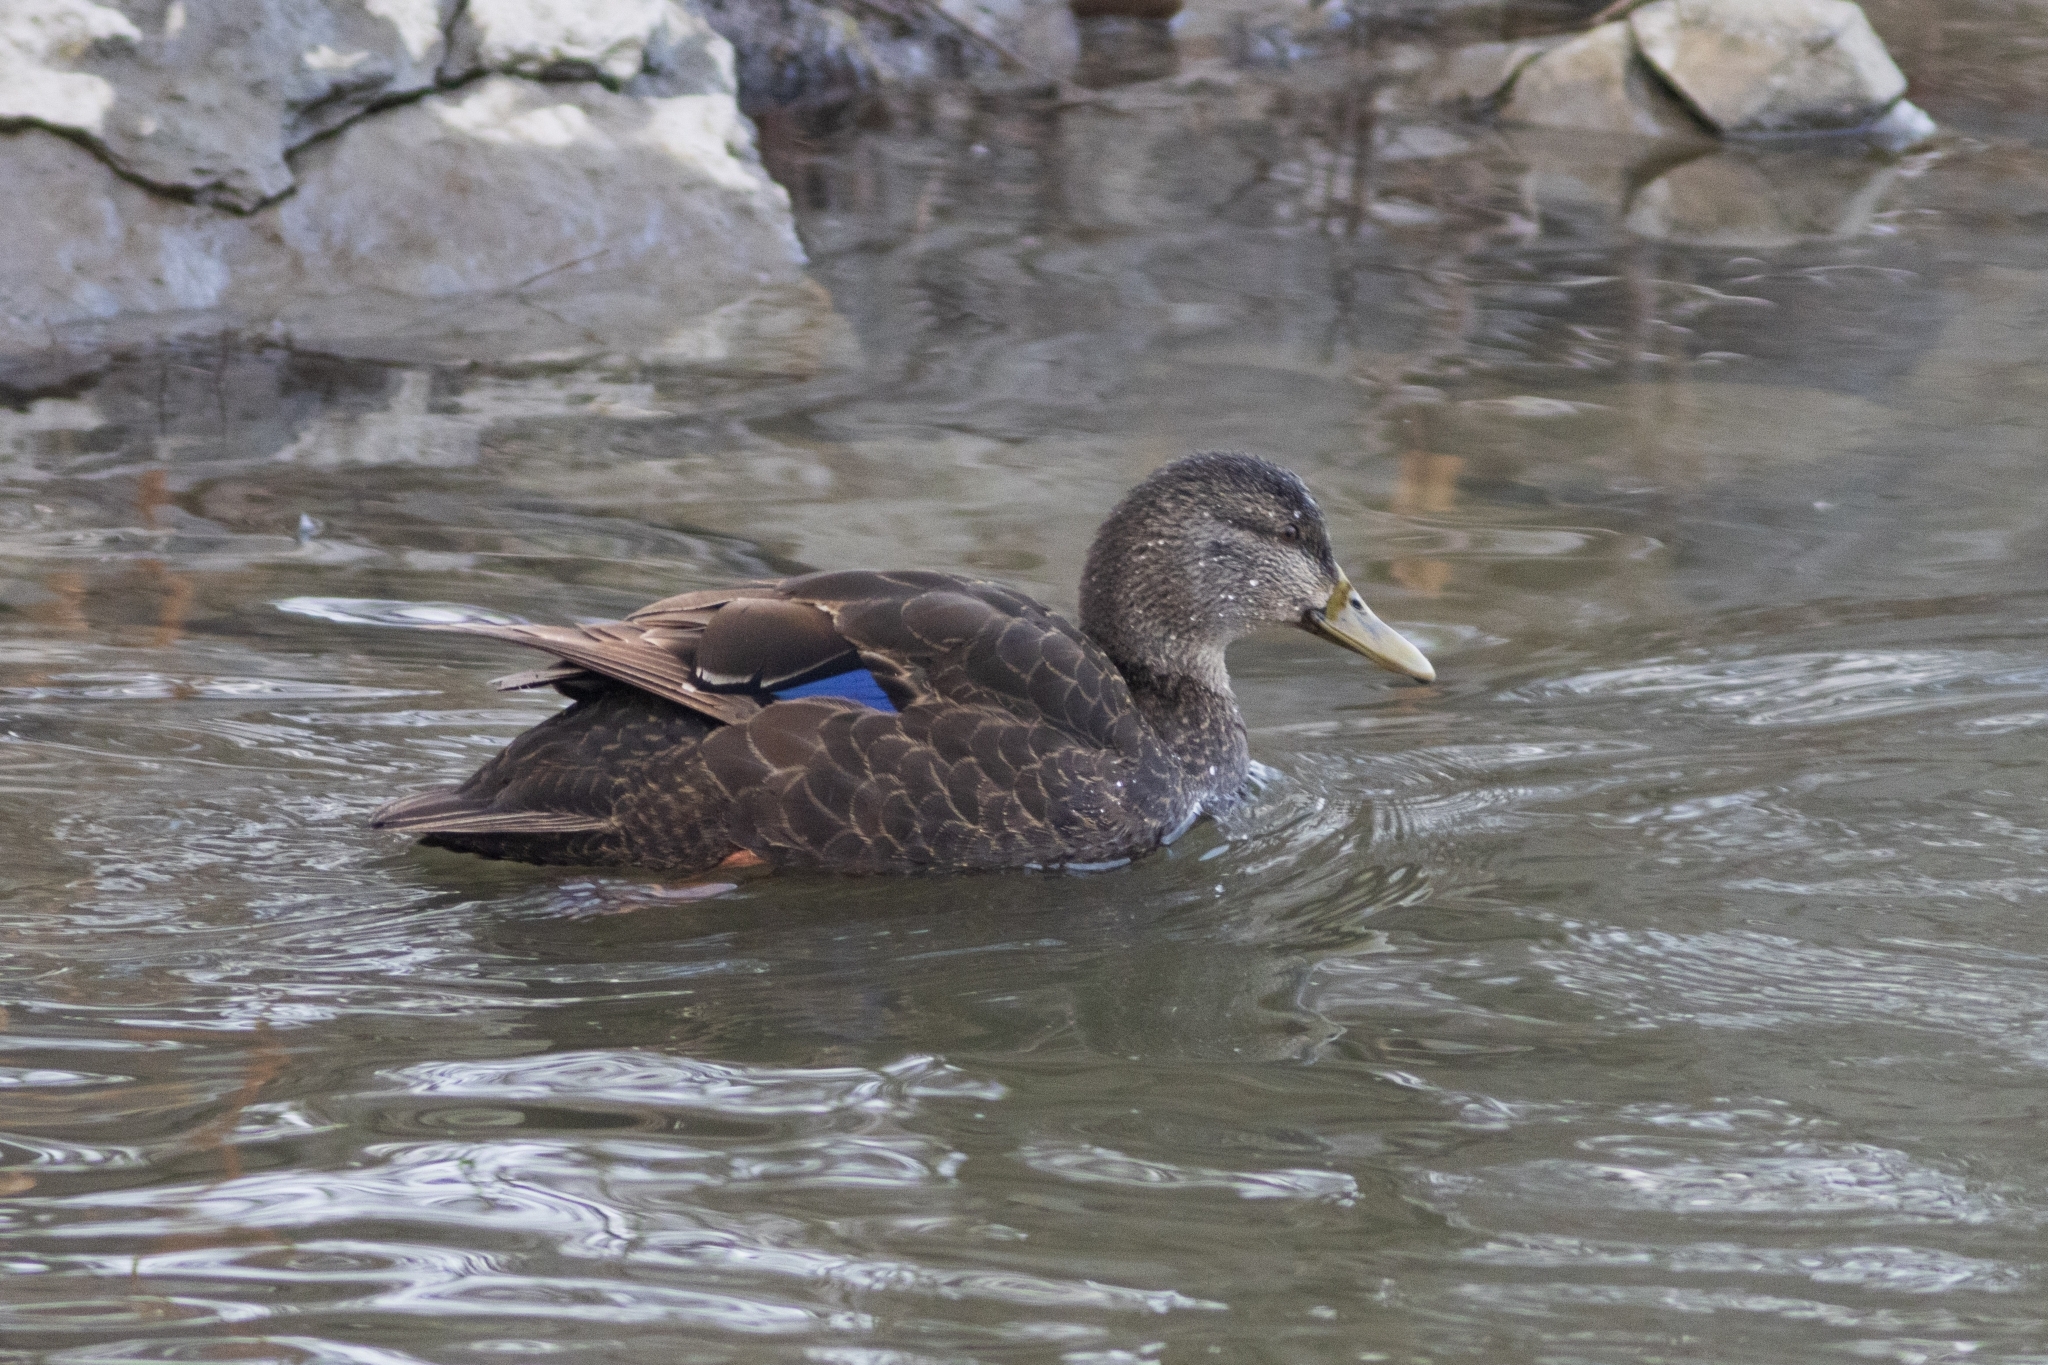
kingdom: Animalia
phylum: Chordata
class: Aves
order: Anseriformes
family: Anatidae
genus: Anas
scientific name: Anas rubripes
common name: American black duck
